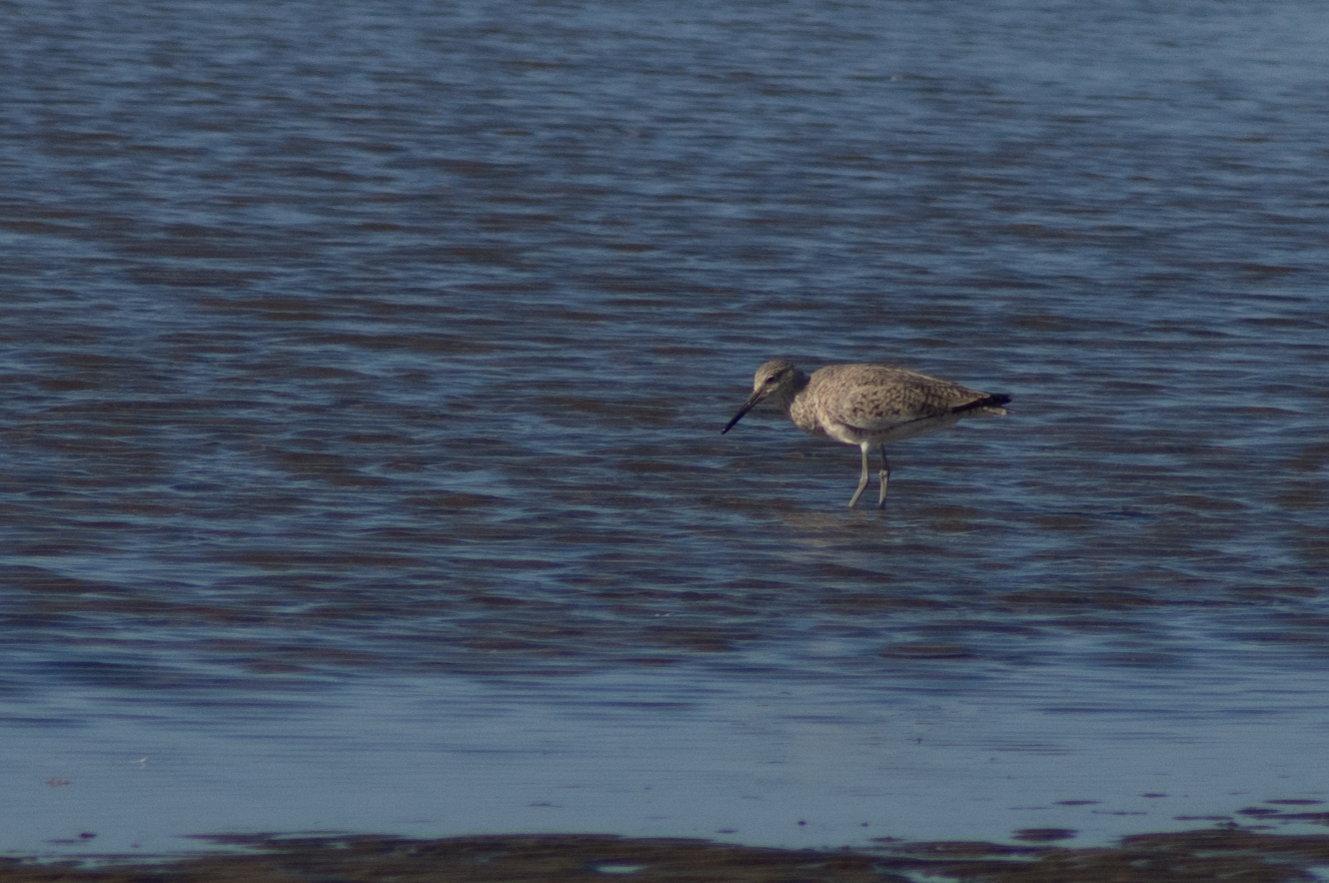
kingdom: Animalia
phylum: Chordata
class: Aves
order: Charadriiformes
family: Scolopacidae
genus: Tringa
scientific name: Tringa semipalmata
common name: Willet
